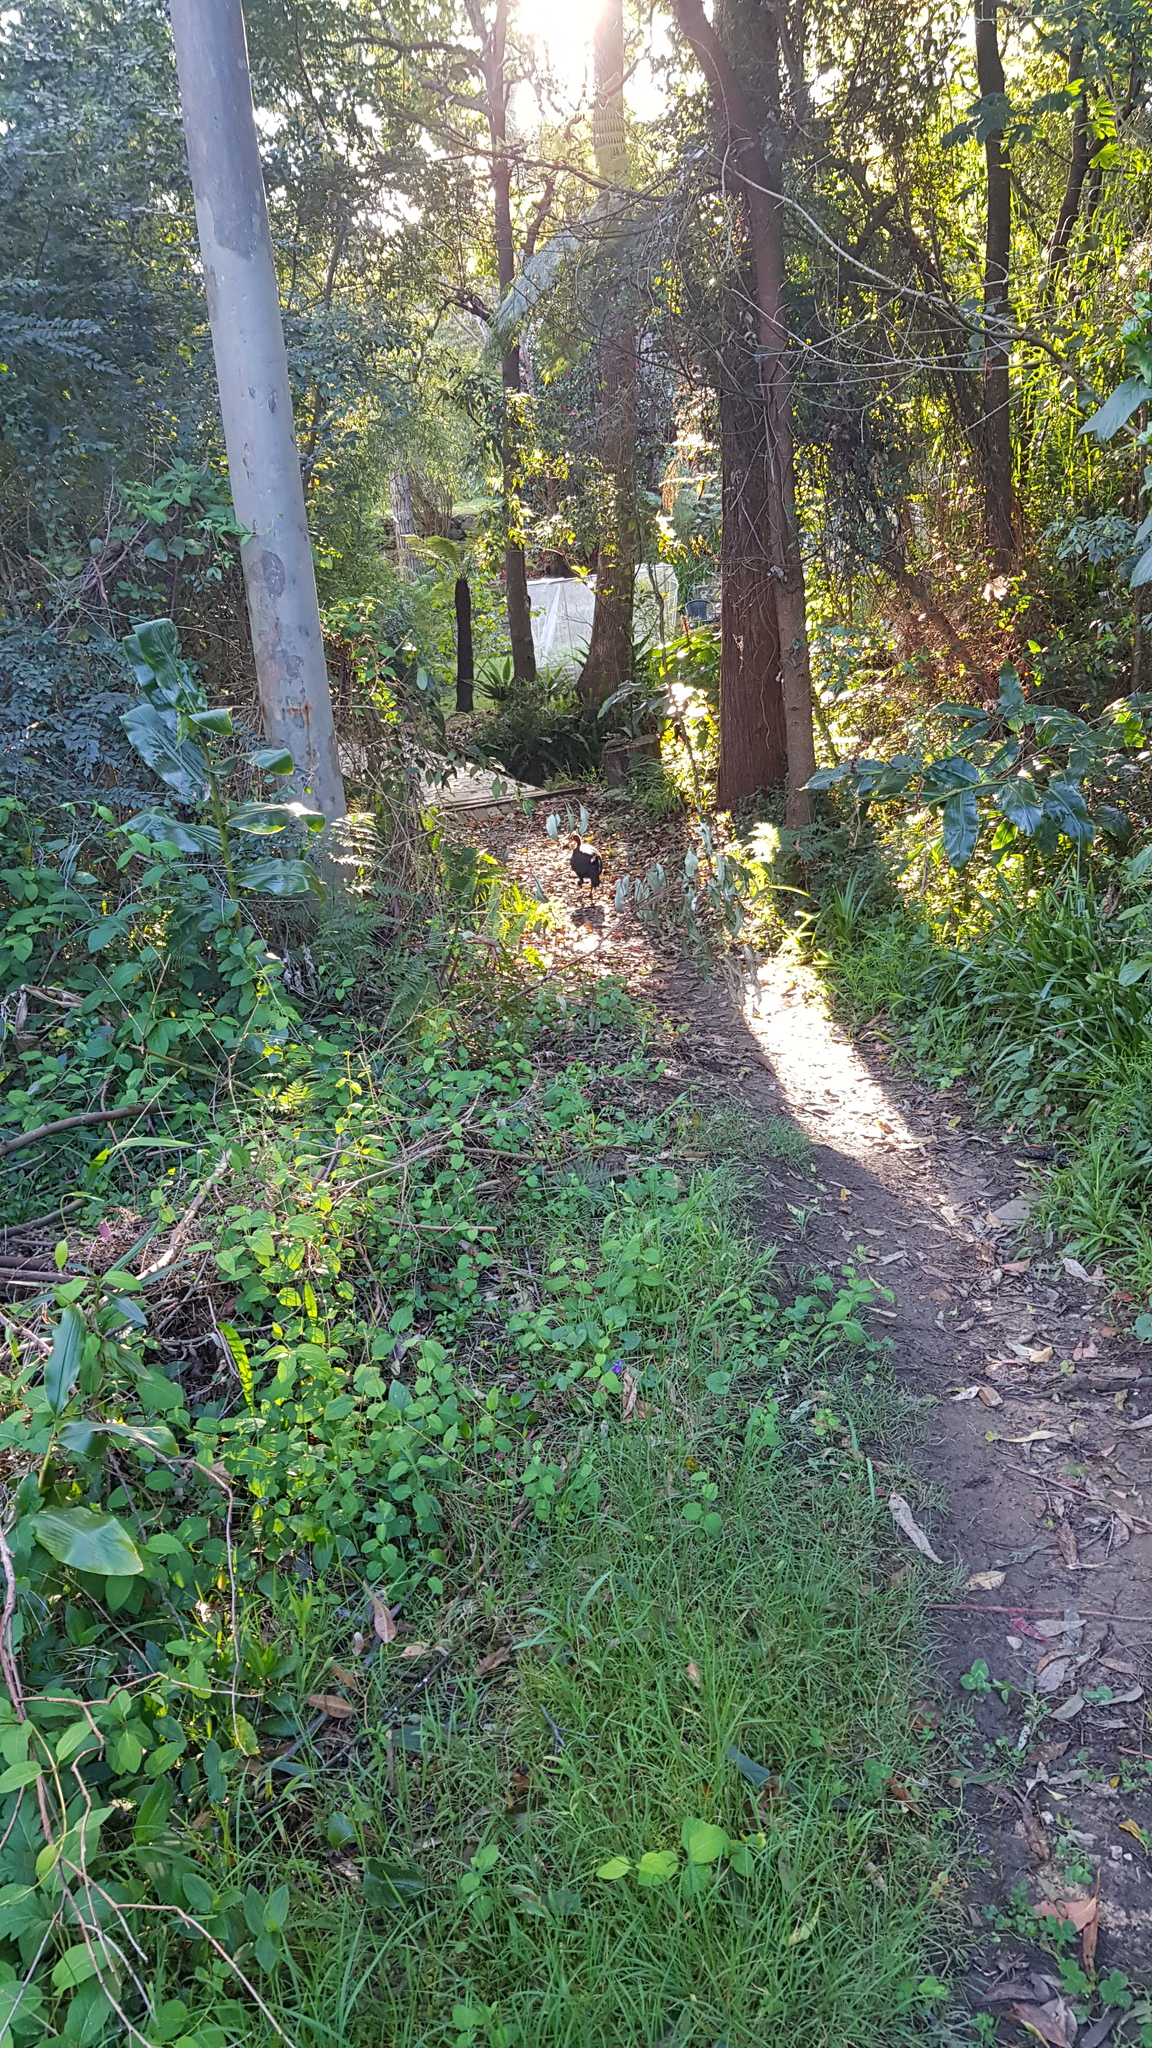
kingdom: Animalia
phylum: Chordata
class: Aves
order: Galliformes
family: Megapodiidae
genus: Alectura
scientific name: Alectura lathami
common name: Australian brushturkey
